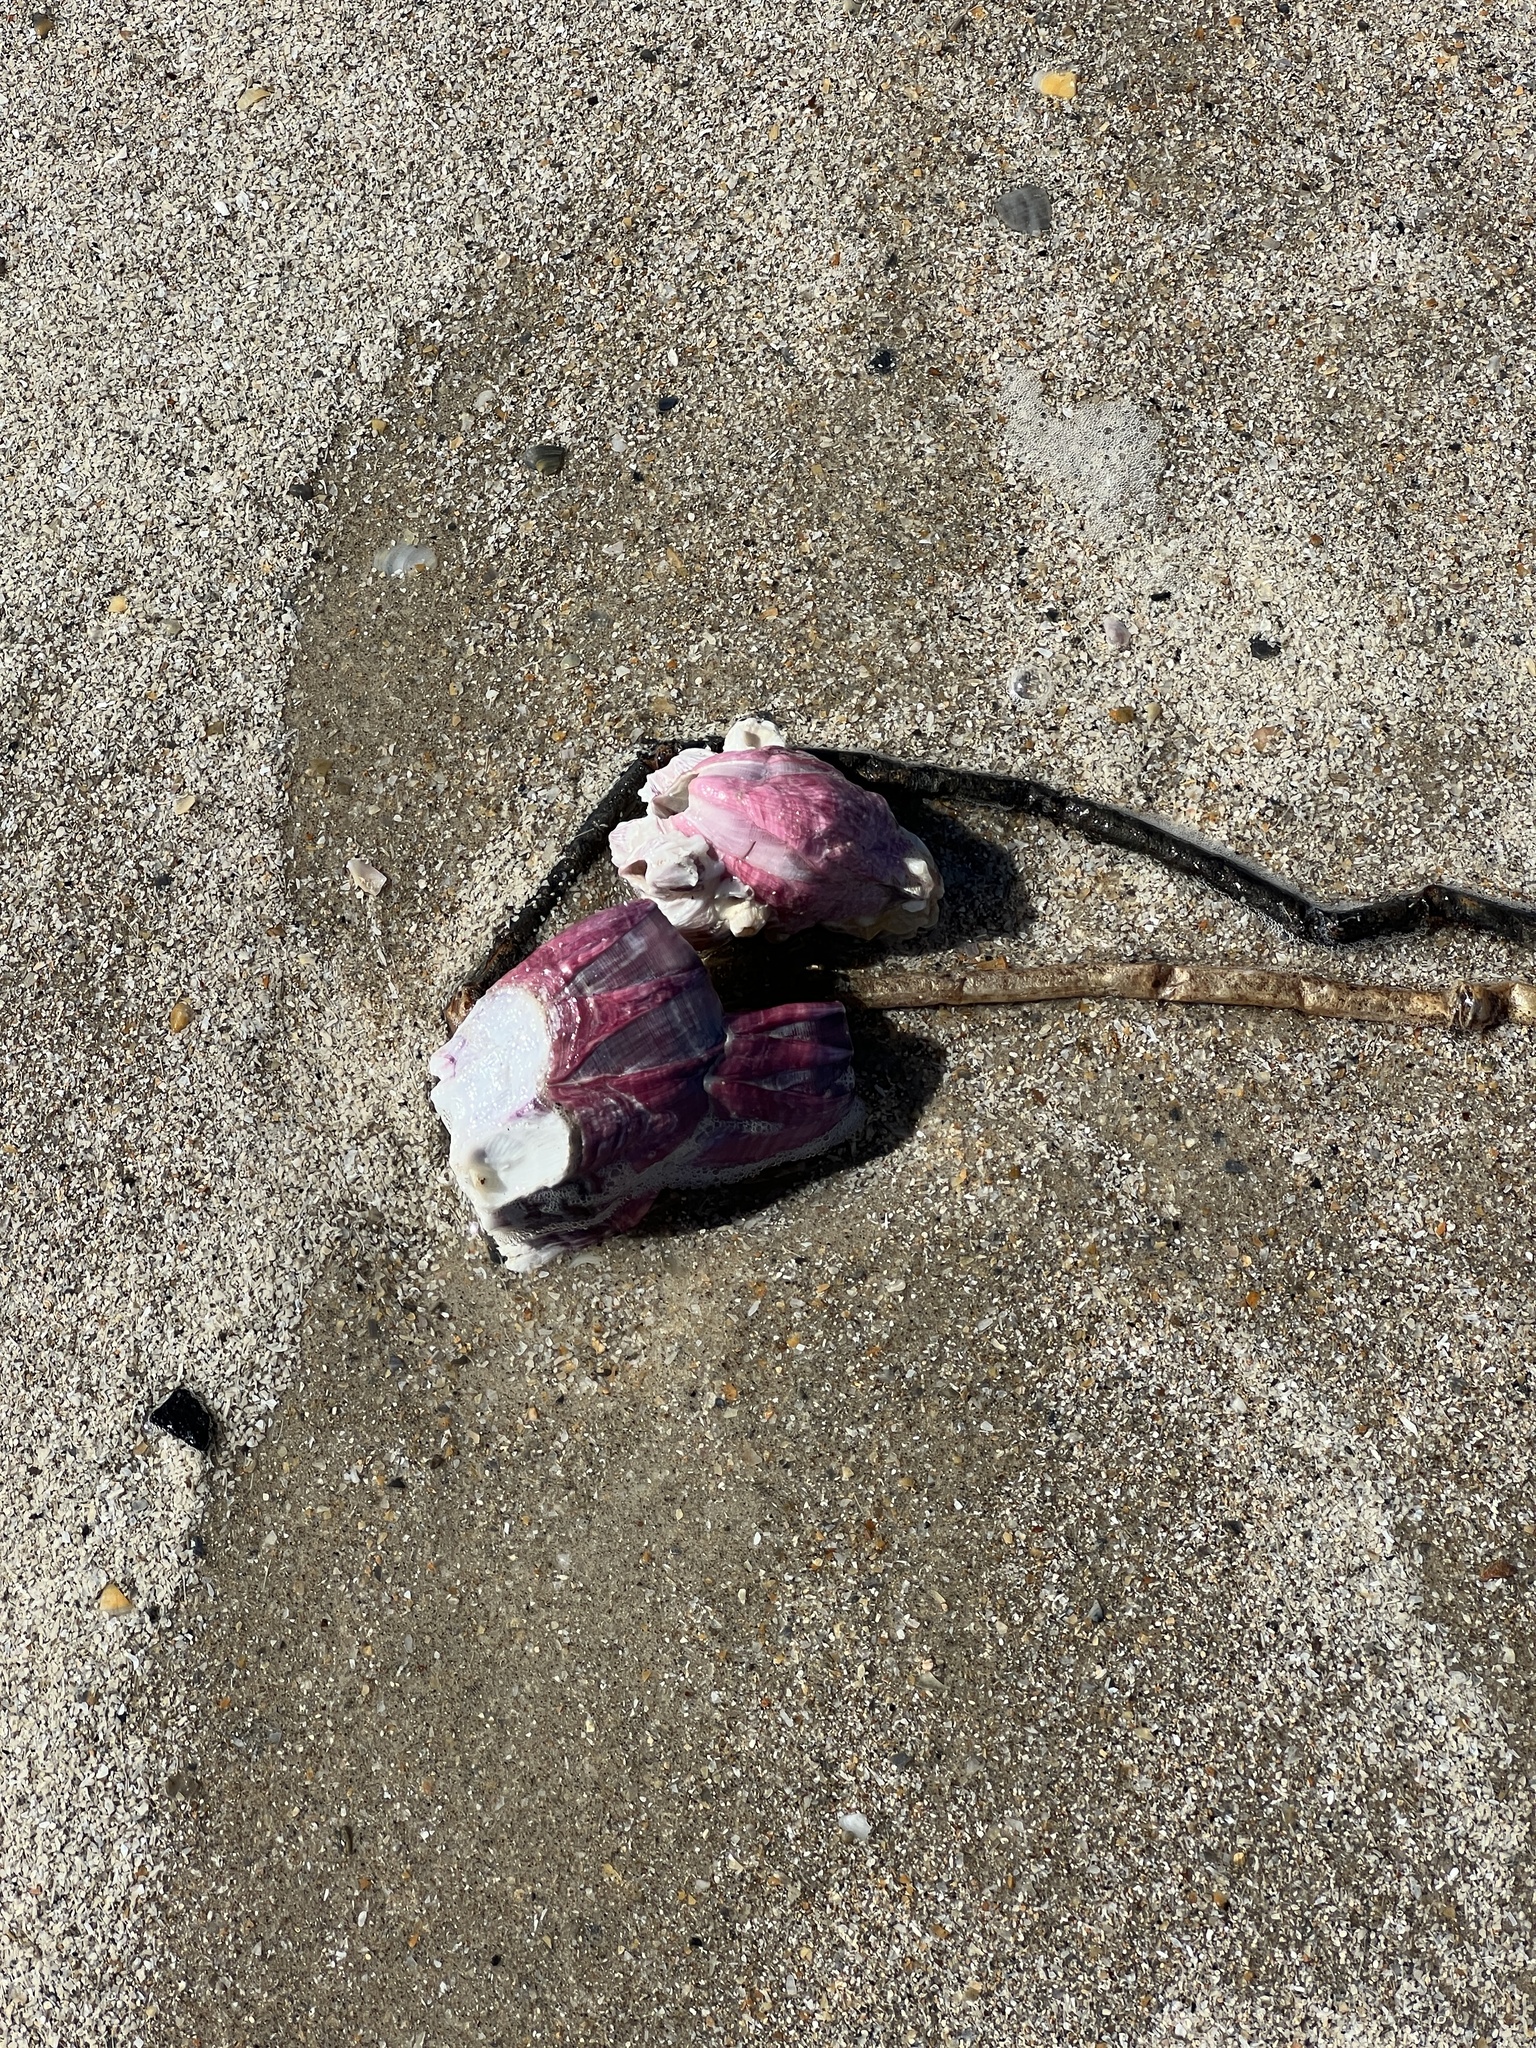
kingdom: Animalia
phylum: Arthropoda
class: Maxillopoda
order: Sessilia
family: Balanidae
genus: Megabalanus
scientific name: Megabalanus tintinnabulum
